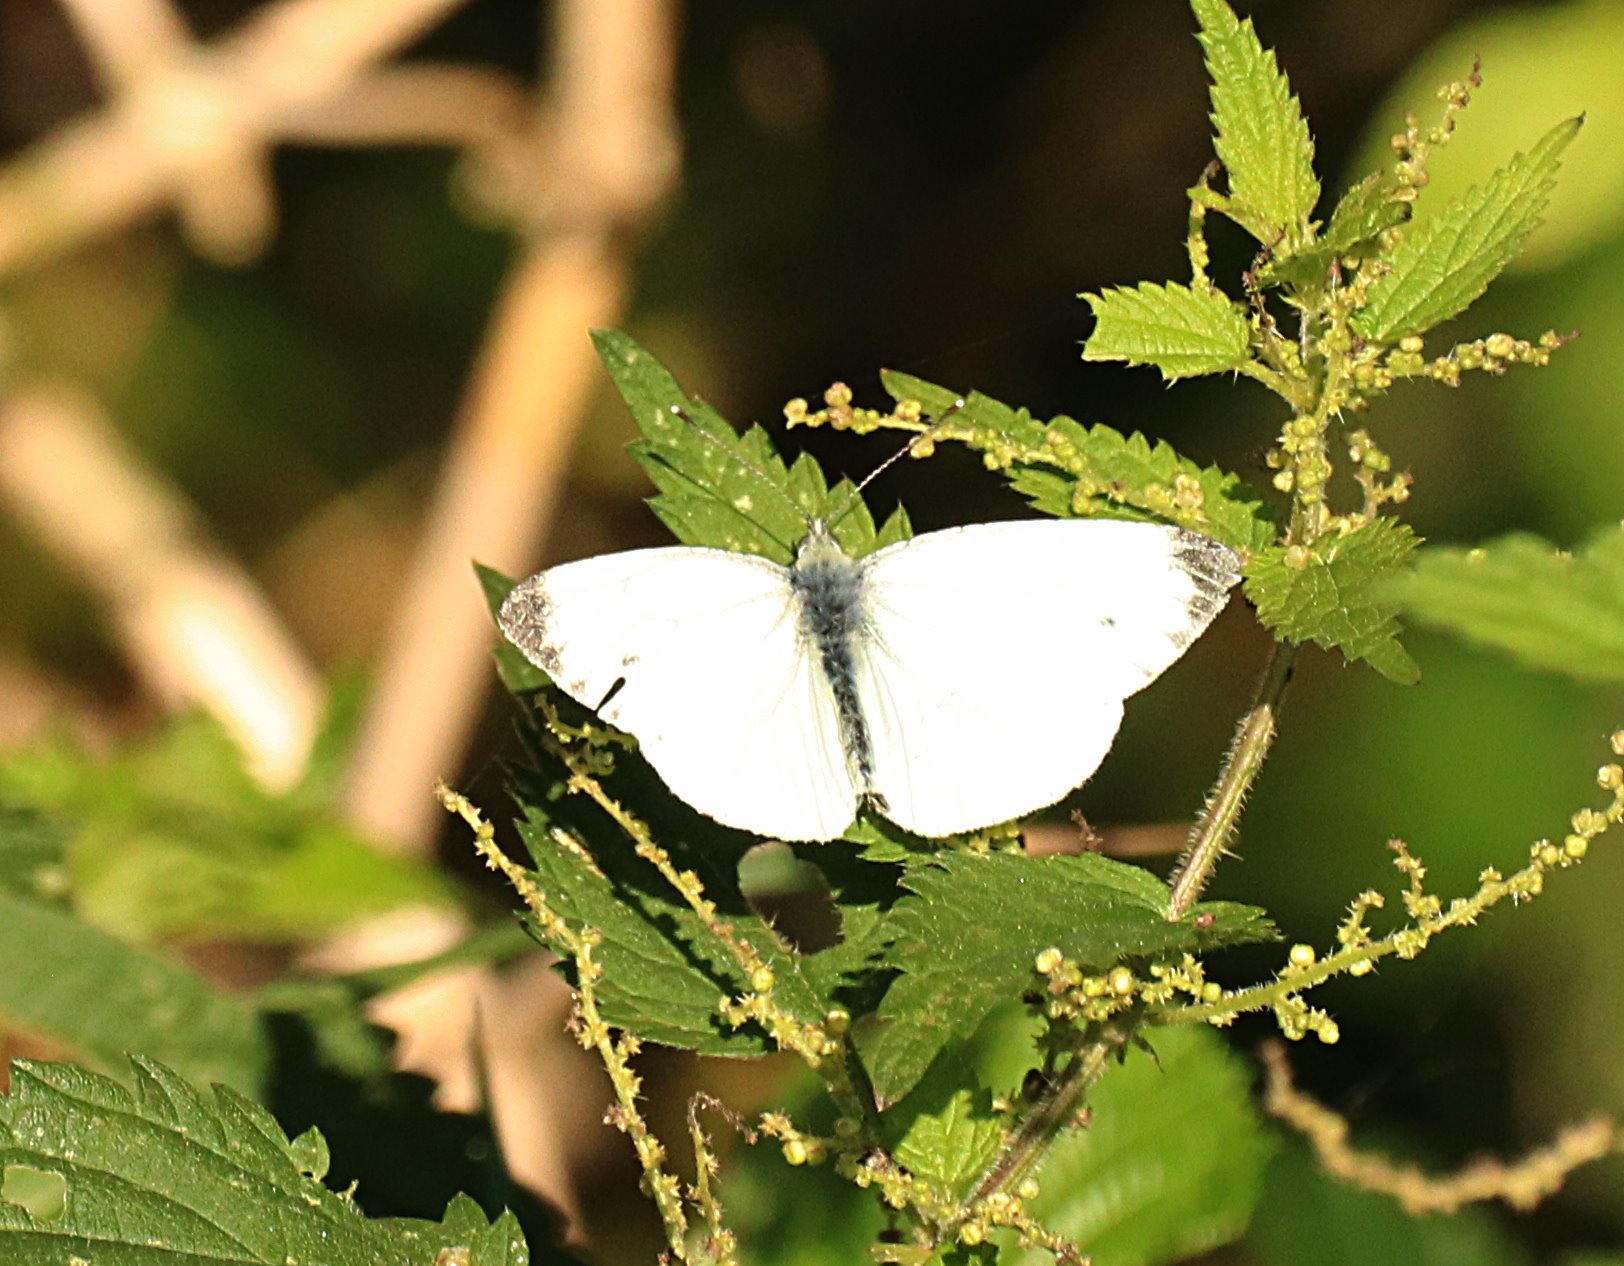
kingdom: Animalia
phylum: Arthropoda
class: Insecta
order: Lepidoptera
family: Pieridae
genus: Pieris
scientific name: Pieris napi
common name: Green-veined white
